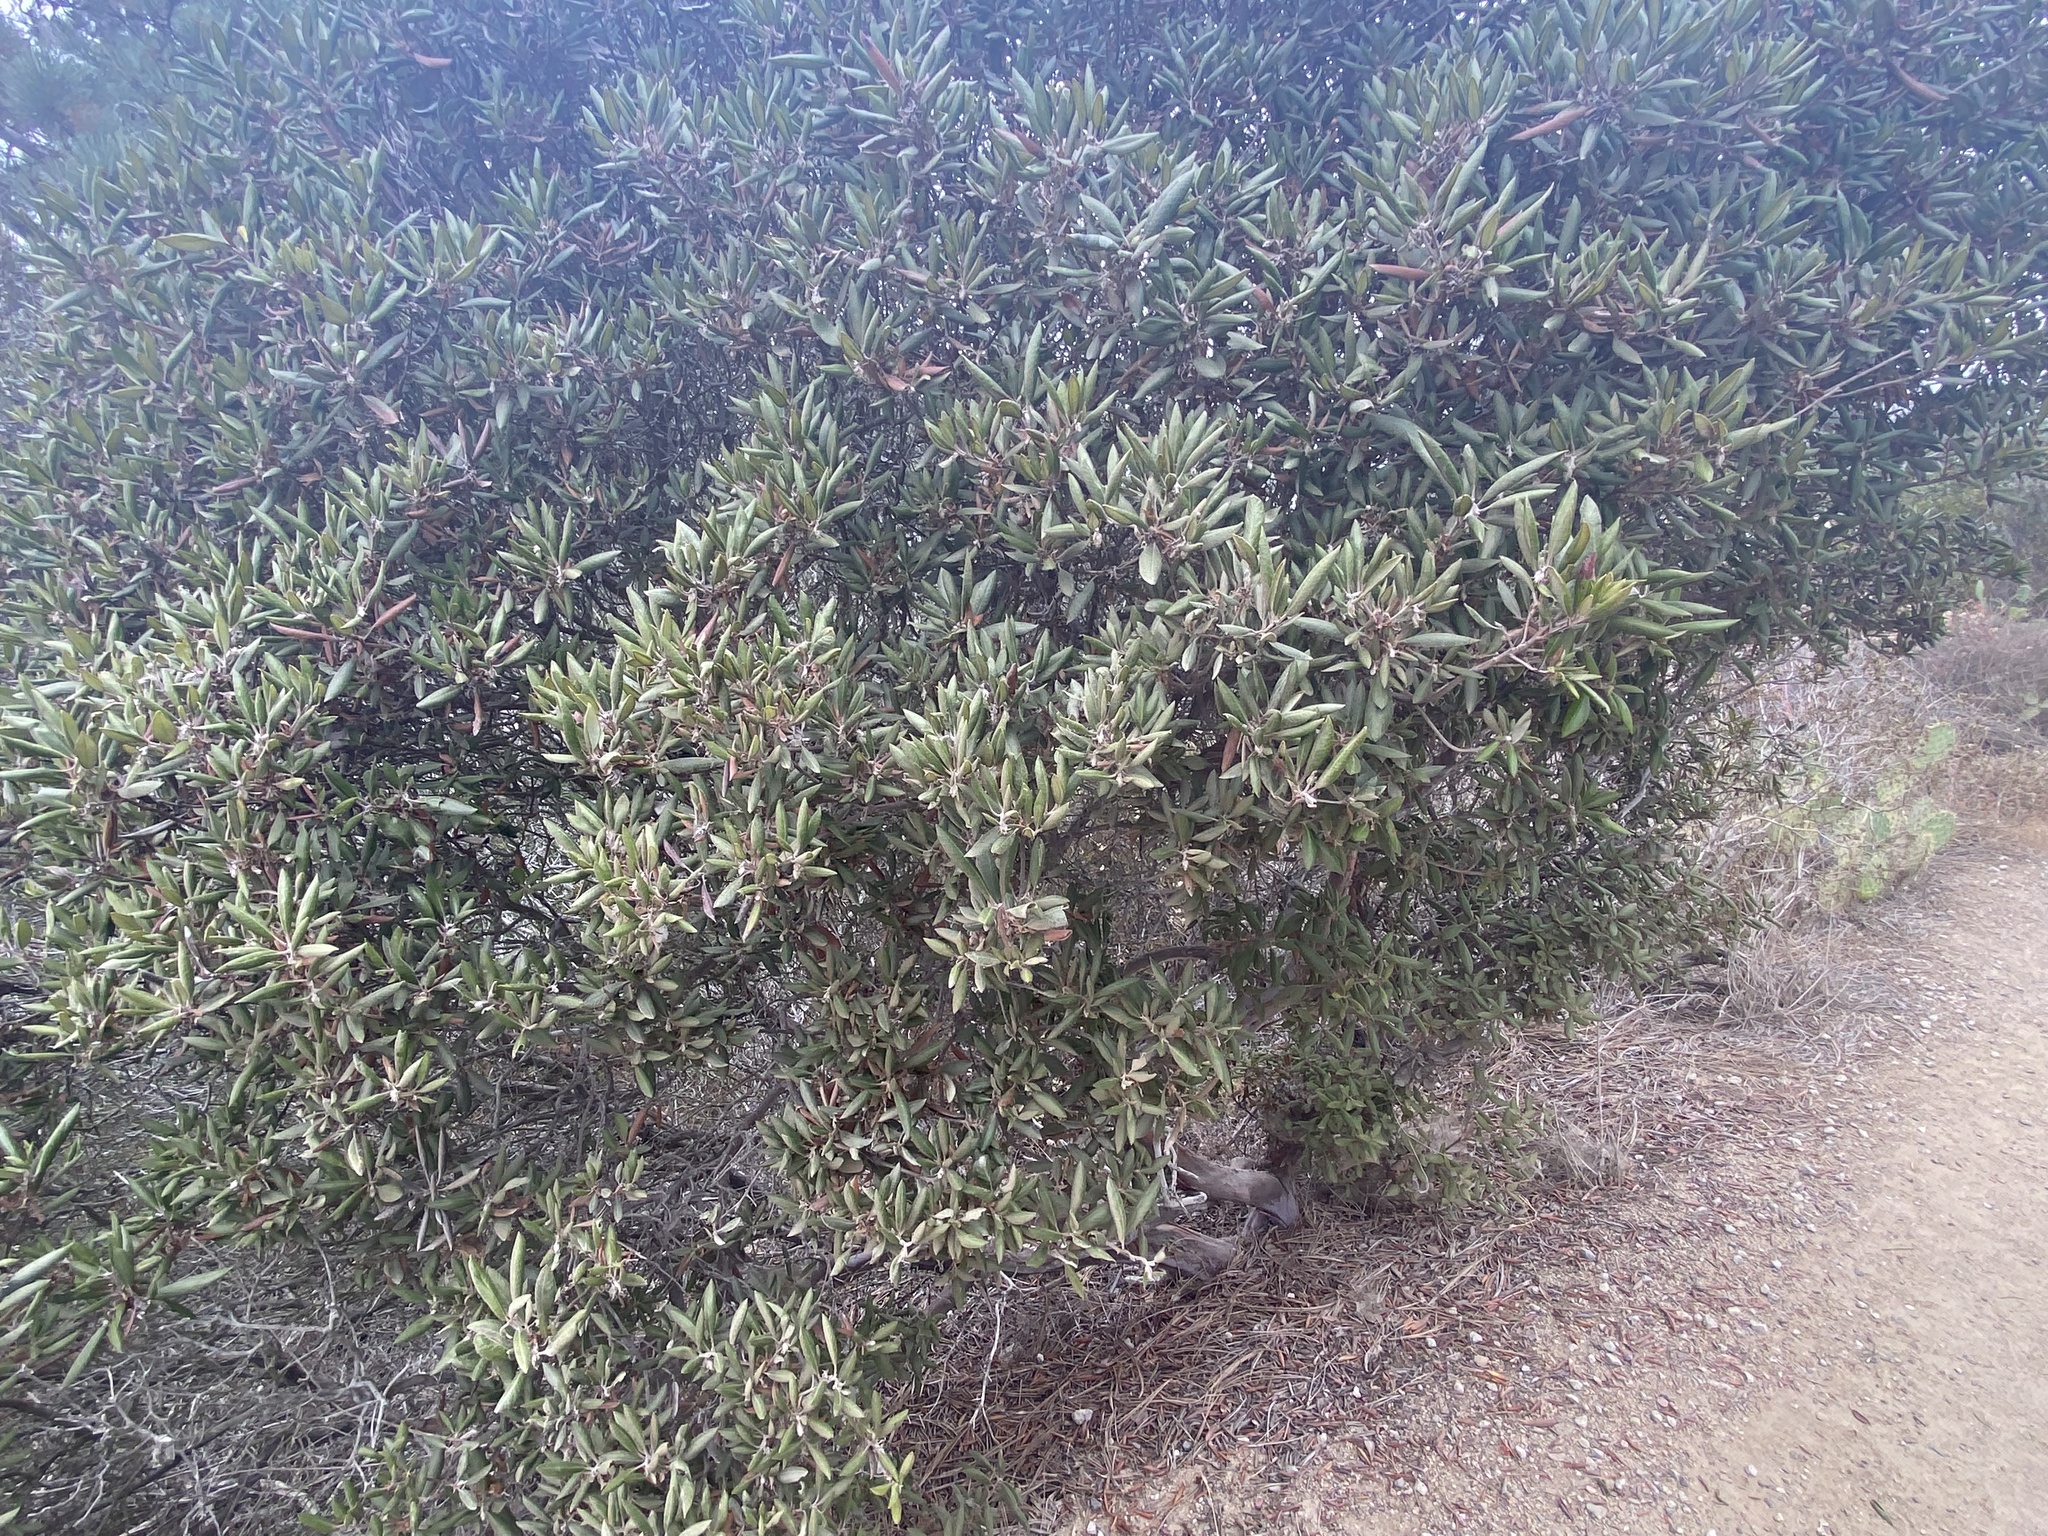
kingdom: Plantae
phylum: Tracheophyta
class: Magnoliopsida
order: Ericales
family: Ericaceae
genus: Arctostaphylos
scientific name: Arctostaphylos bicolor
